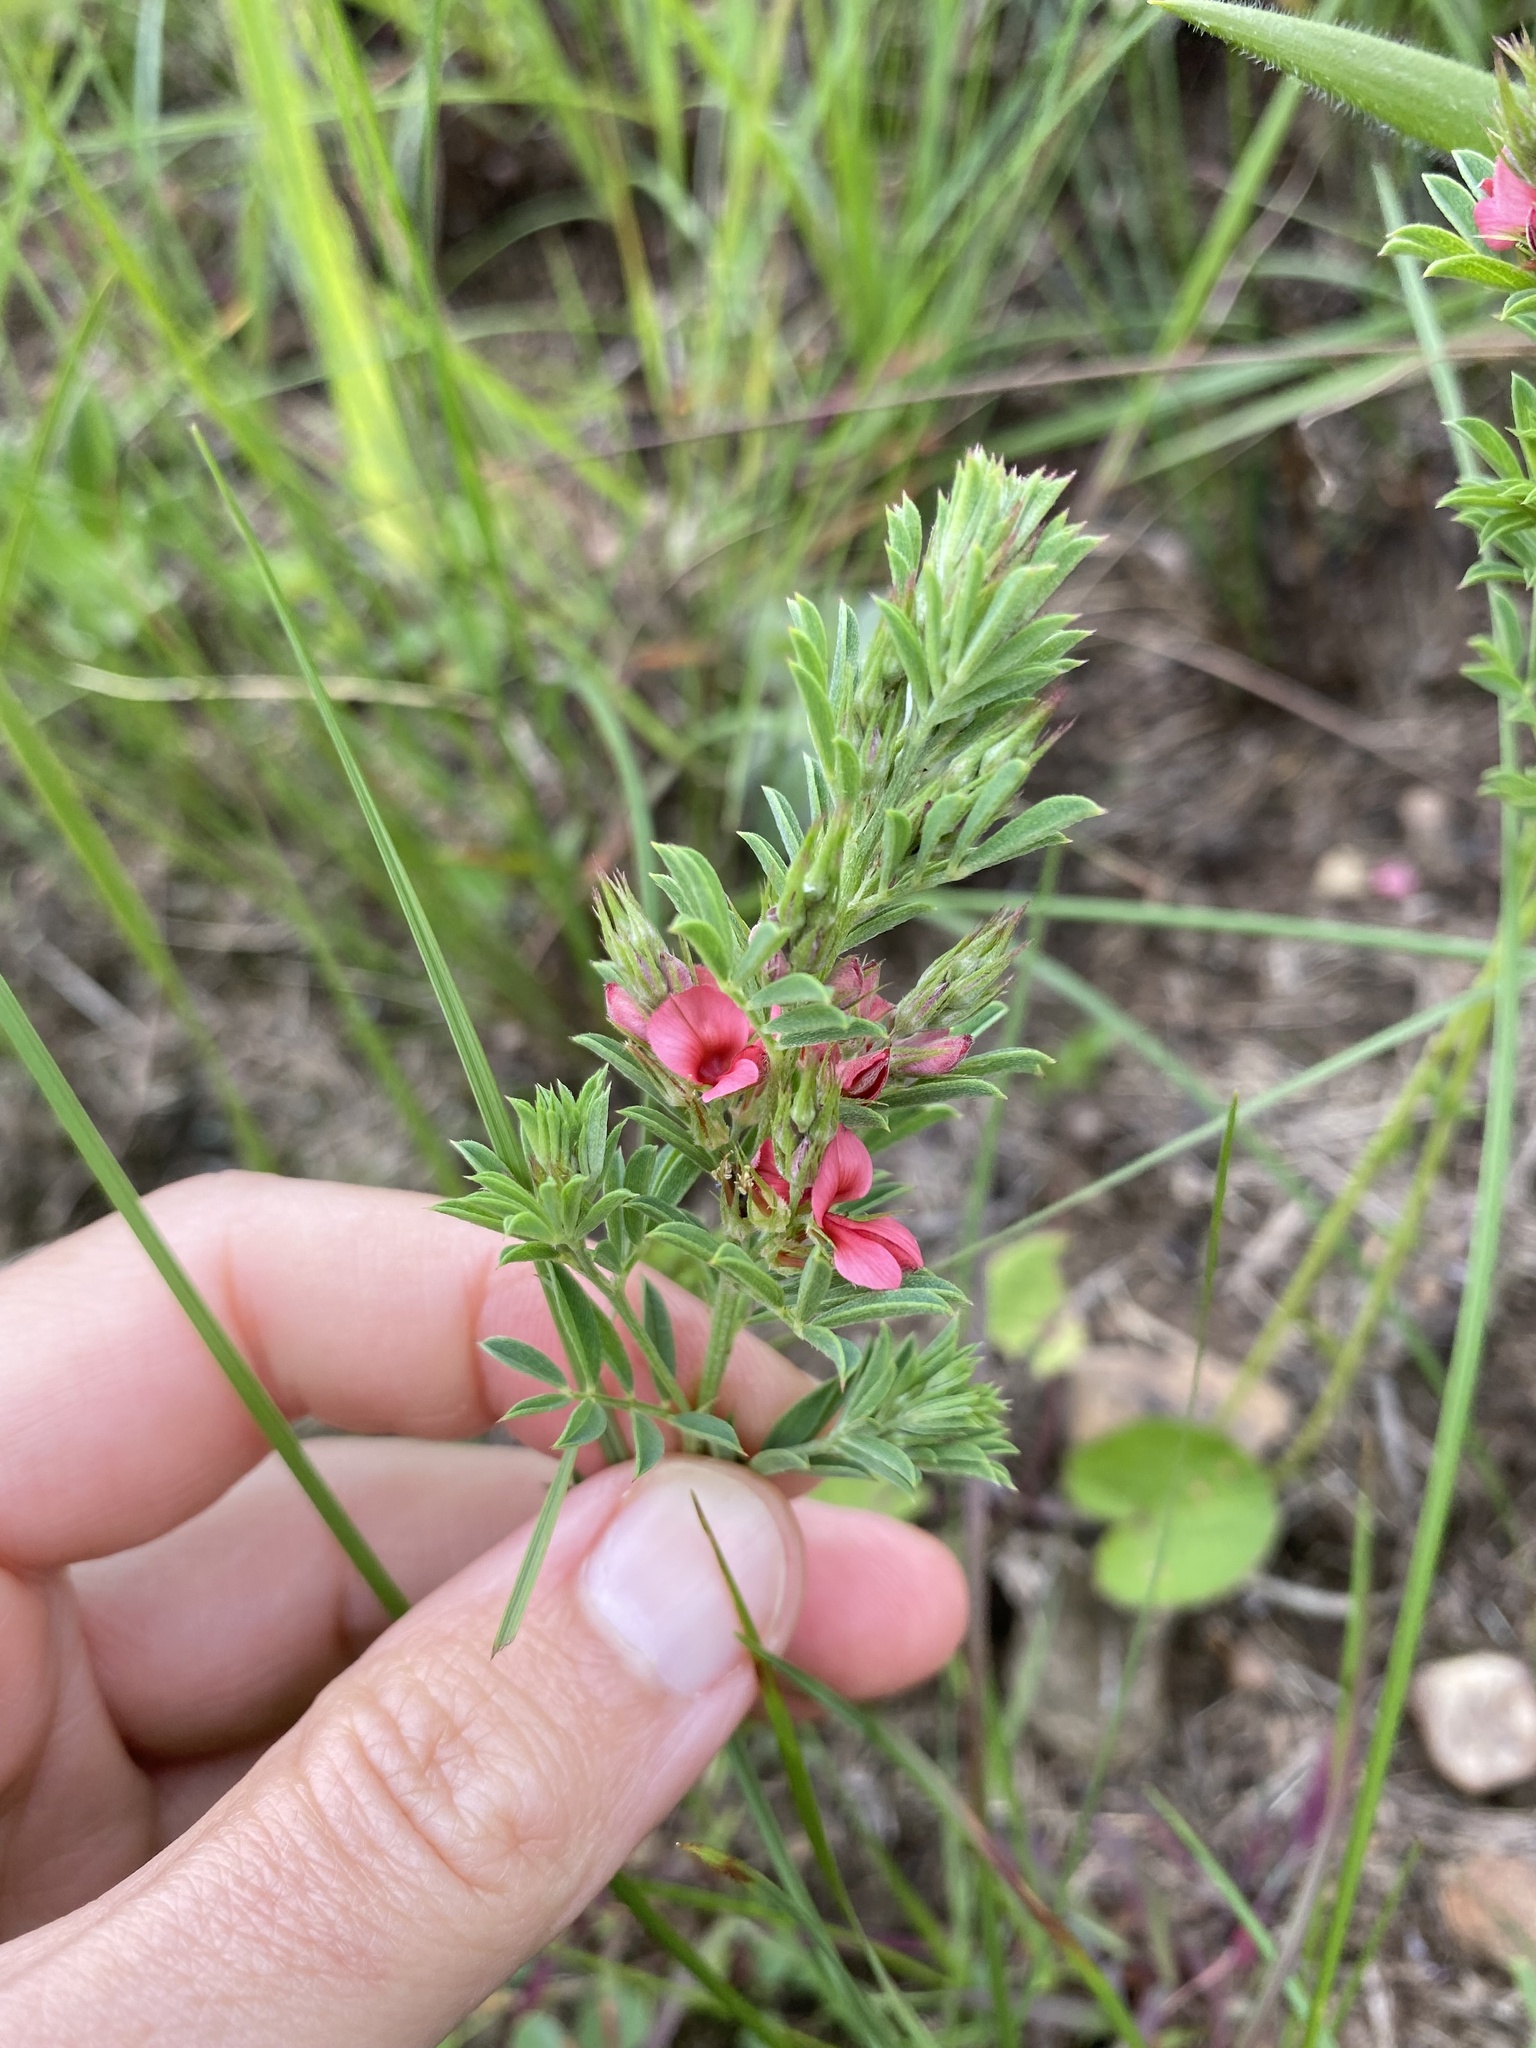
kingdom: Plantae
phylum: Tracheophyta
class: Magnoliopsida
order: Fabales
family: Fabaceae
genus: Indigofera
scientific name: Indigofera hilaris
